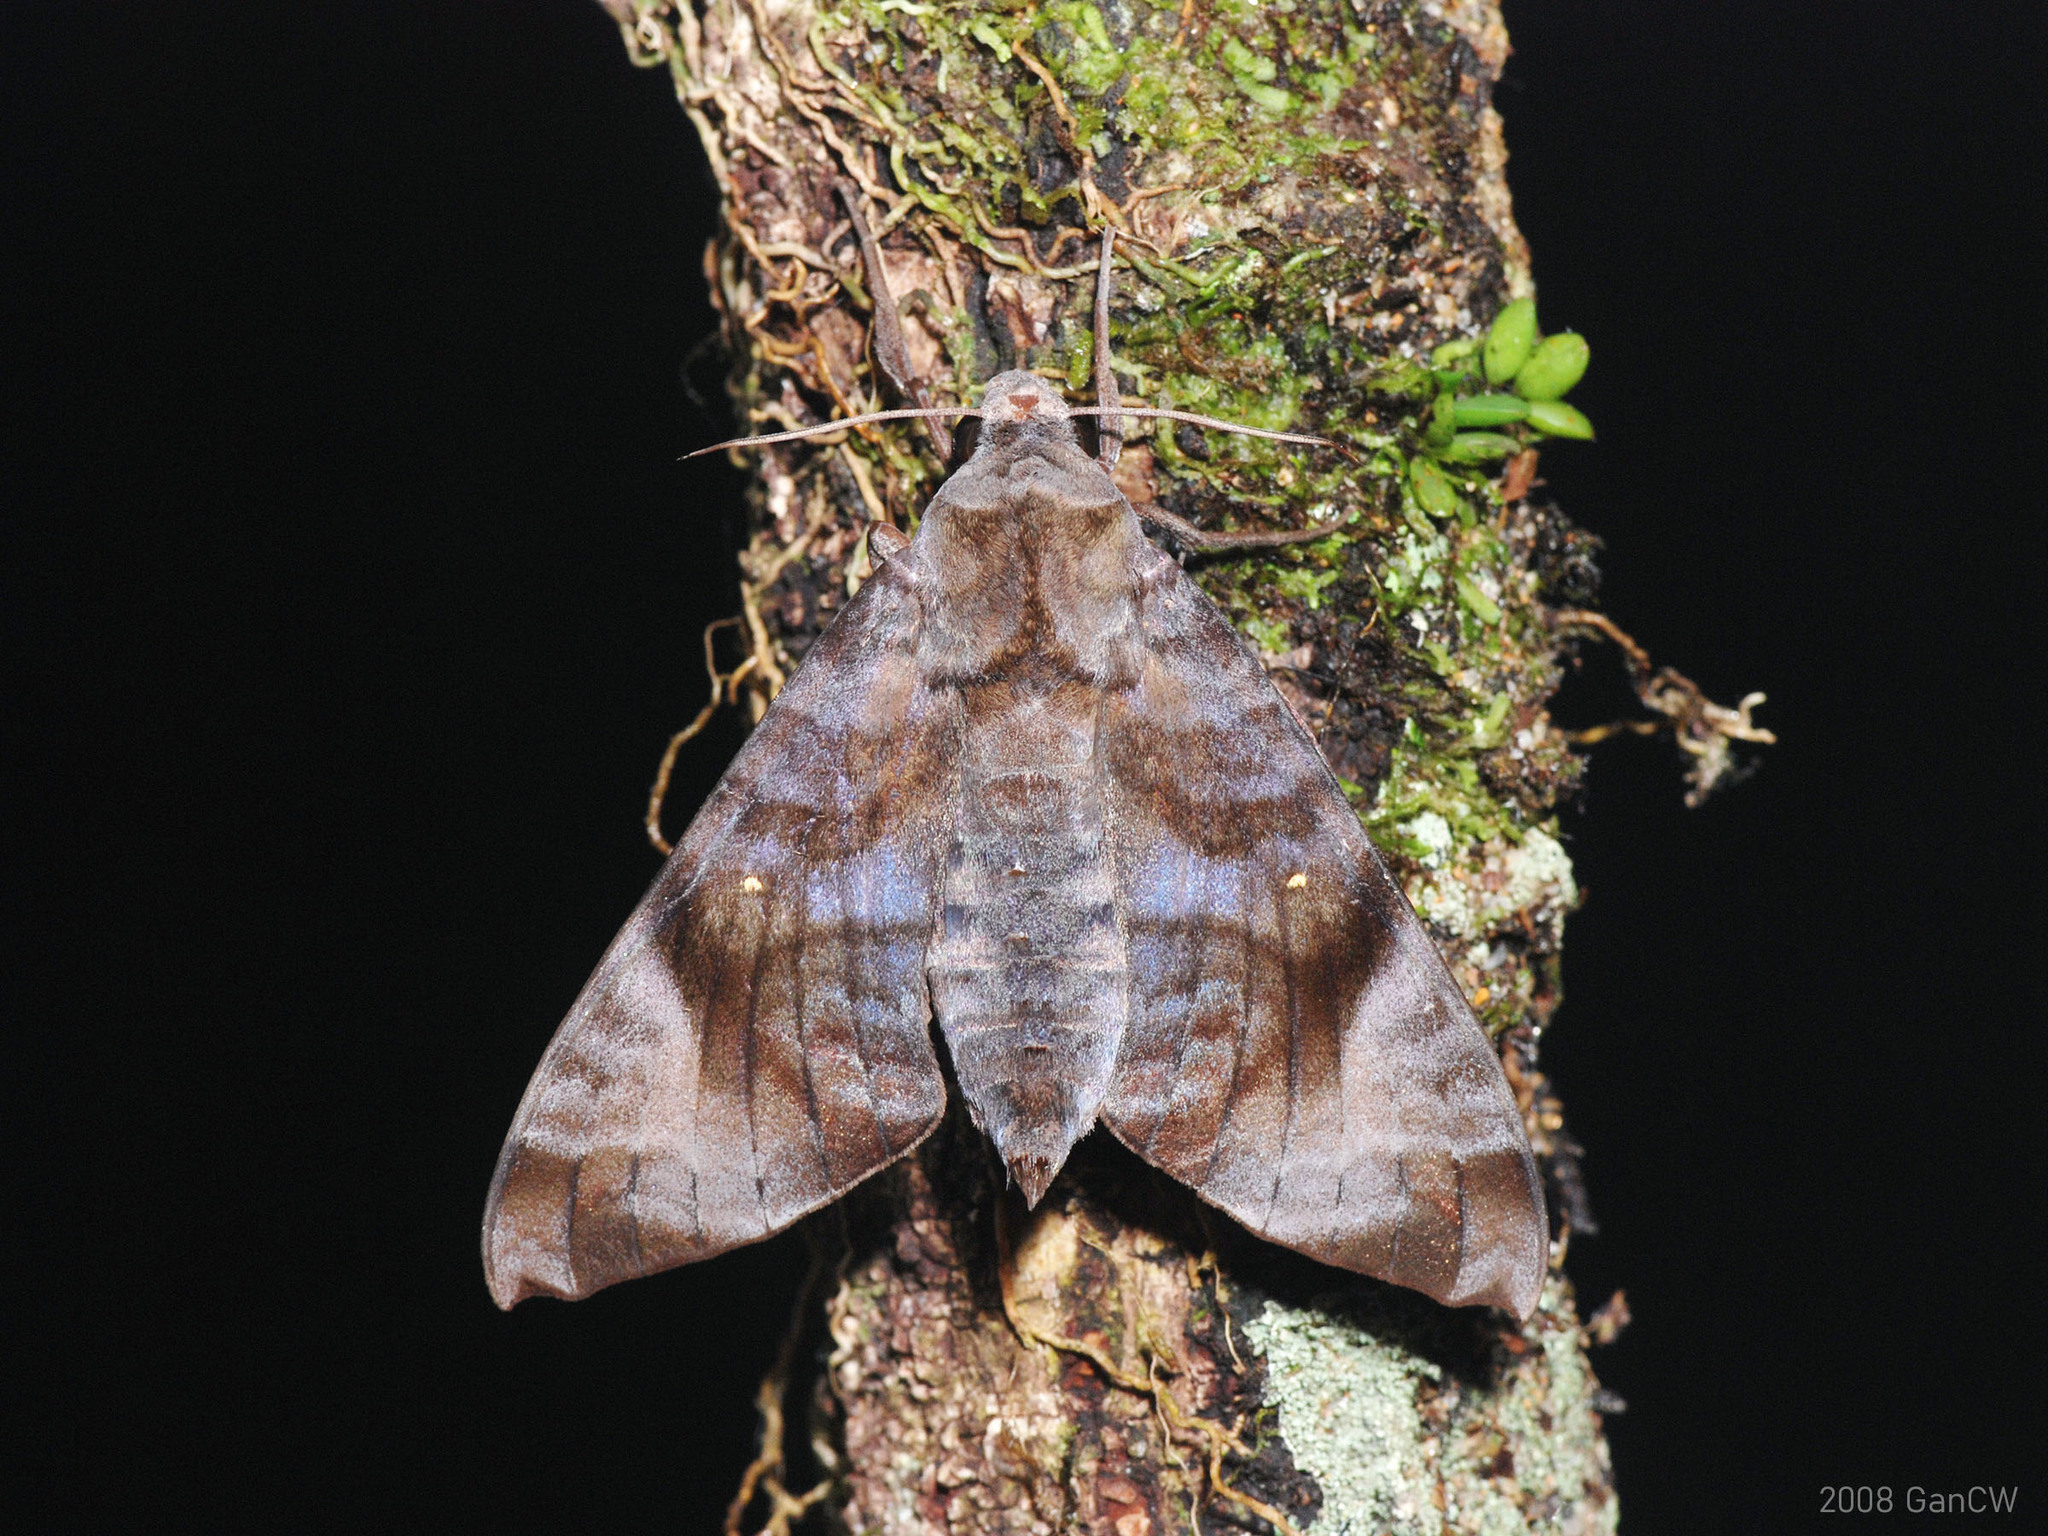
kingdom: Animalia
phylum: Arthropoda
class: Insecta
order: Lepidoptera
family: Sphingidae
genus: Acosmeryx
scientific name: Acosmeryx pseudonaga
